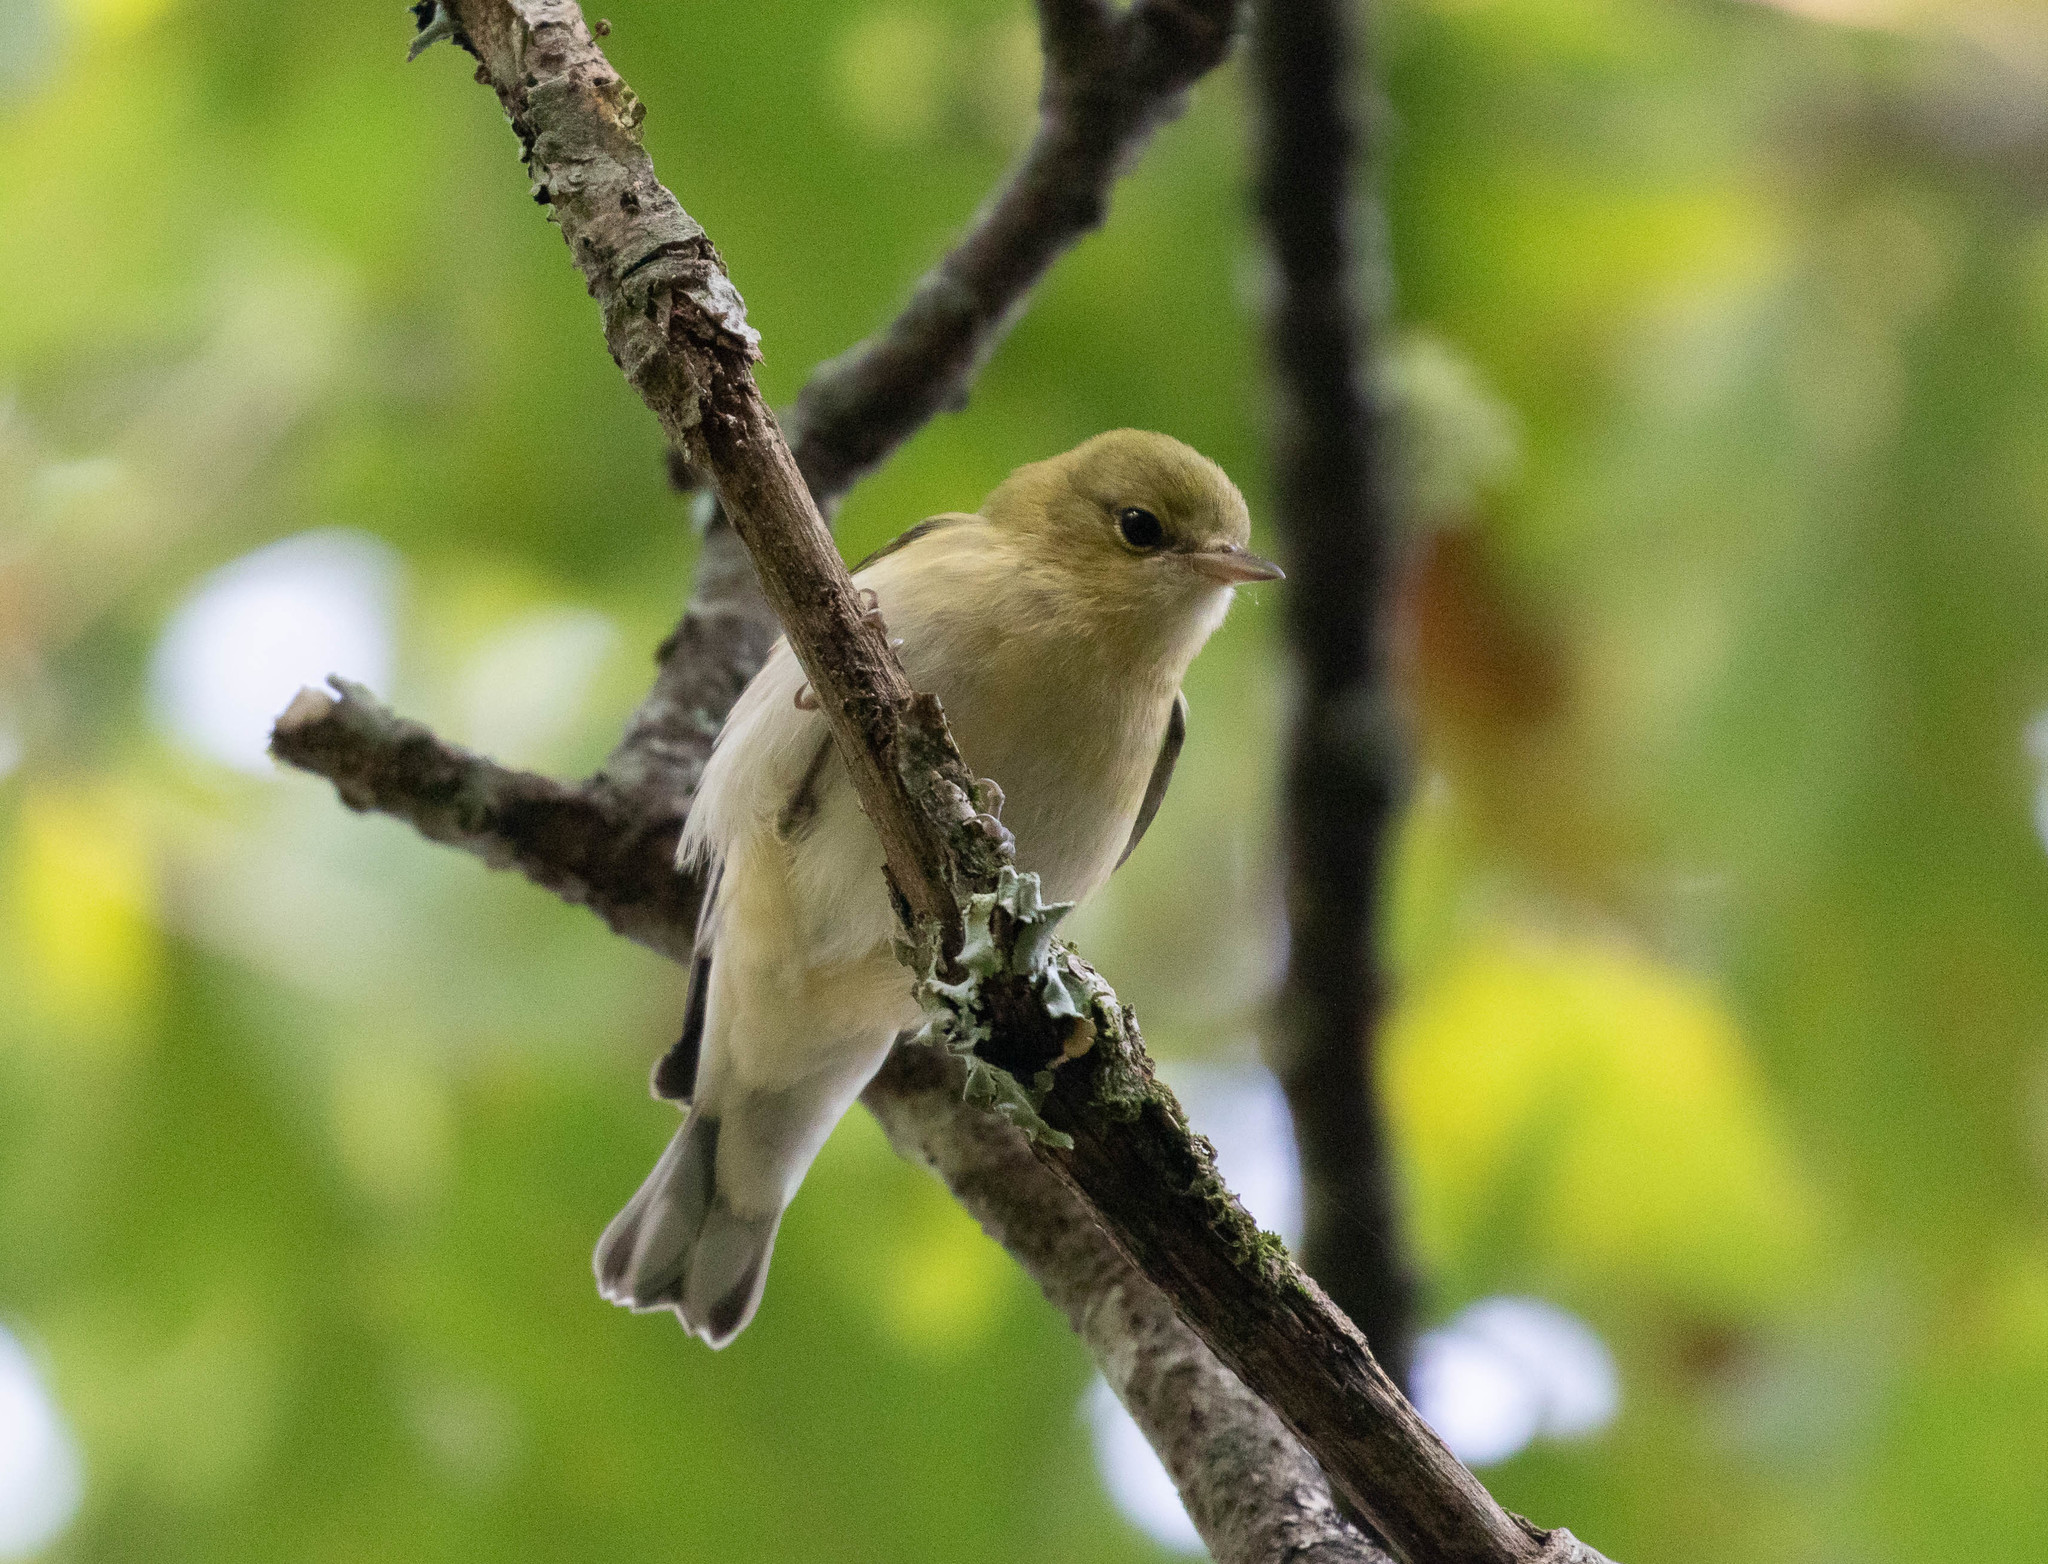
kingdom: Animalia
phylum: Chordata
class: Aves
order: Passeriformes
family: Parulidae
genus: Setophaga
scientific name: Setophaga castanea
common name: Bay-breasted warbler
